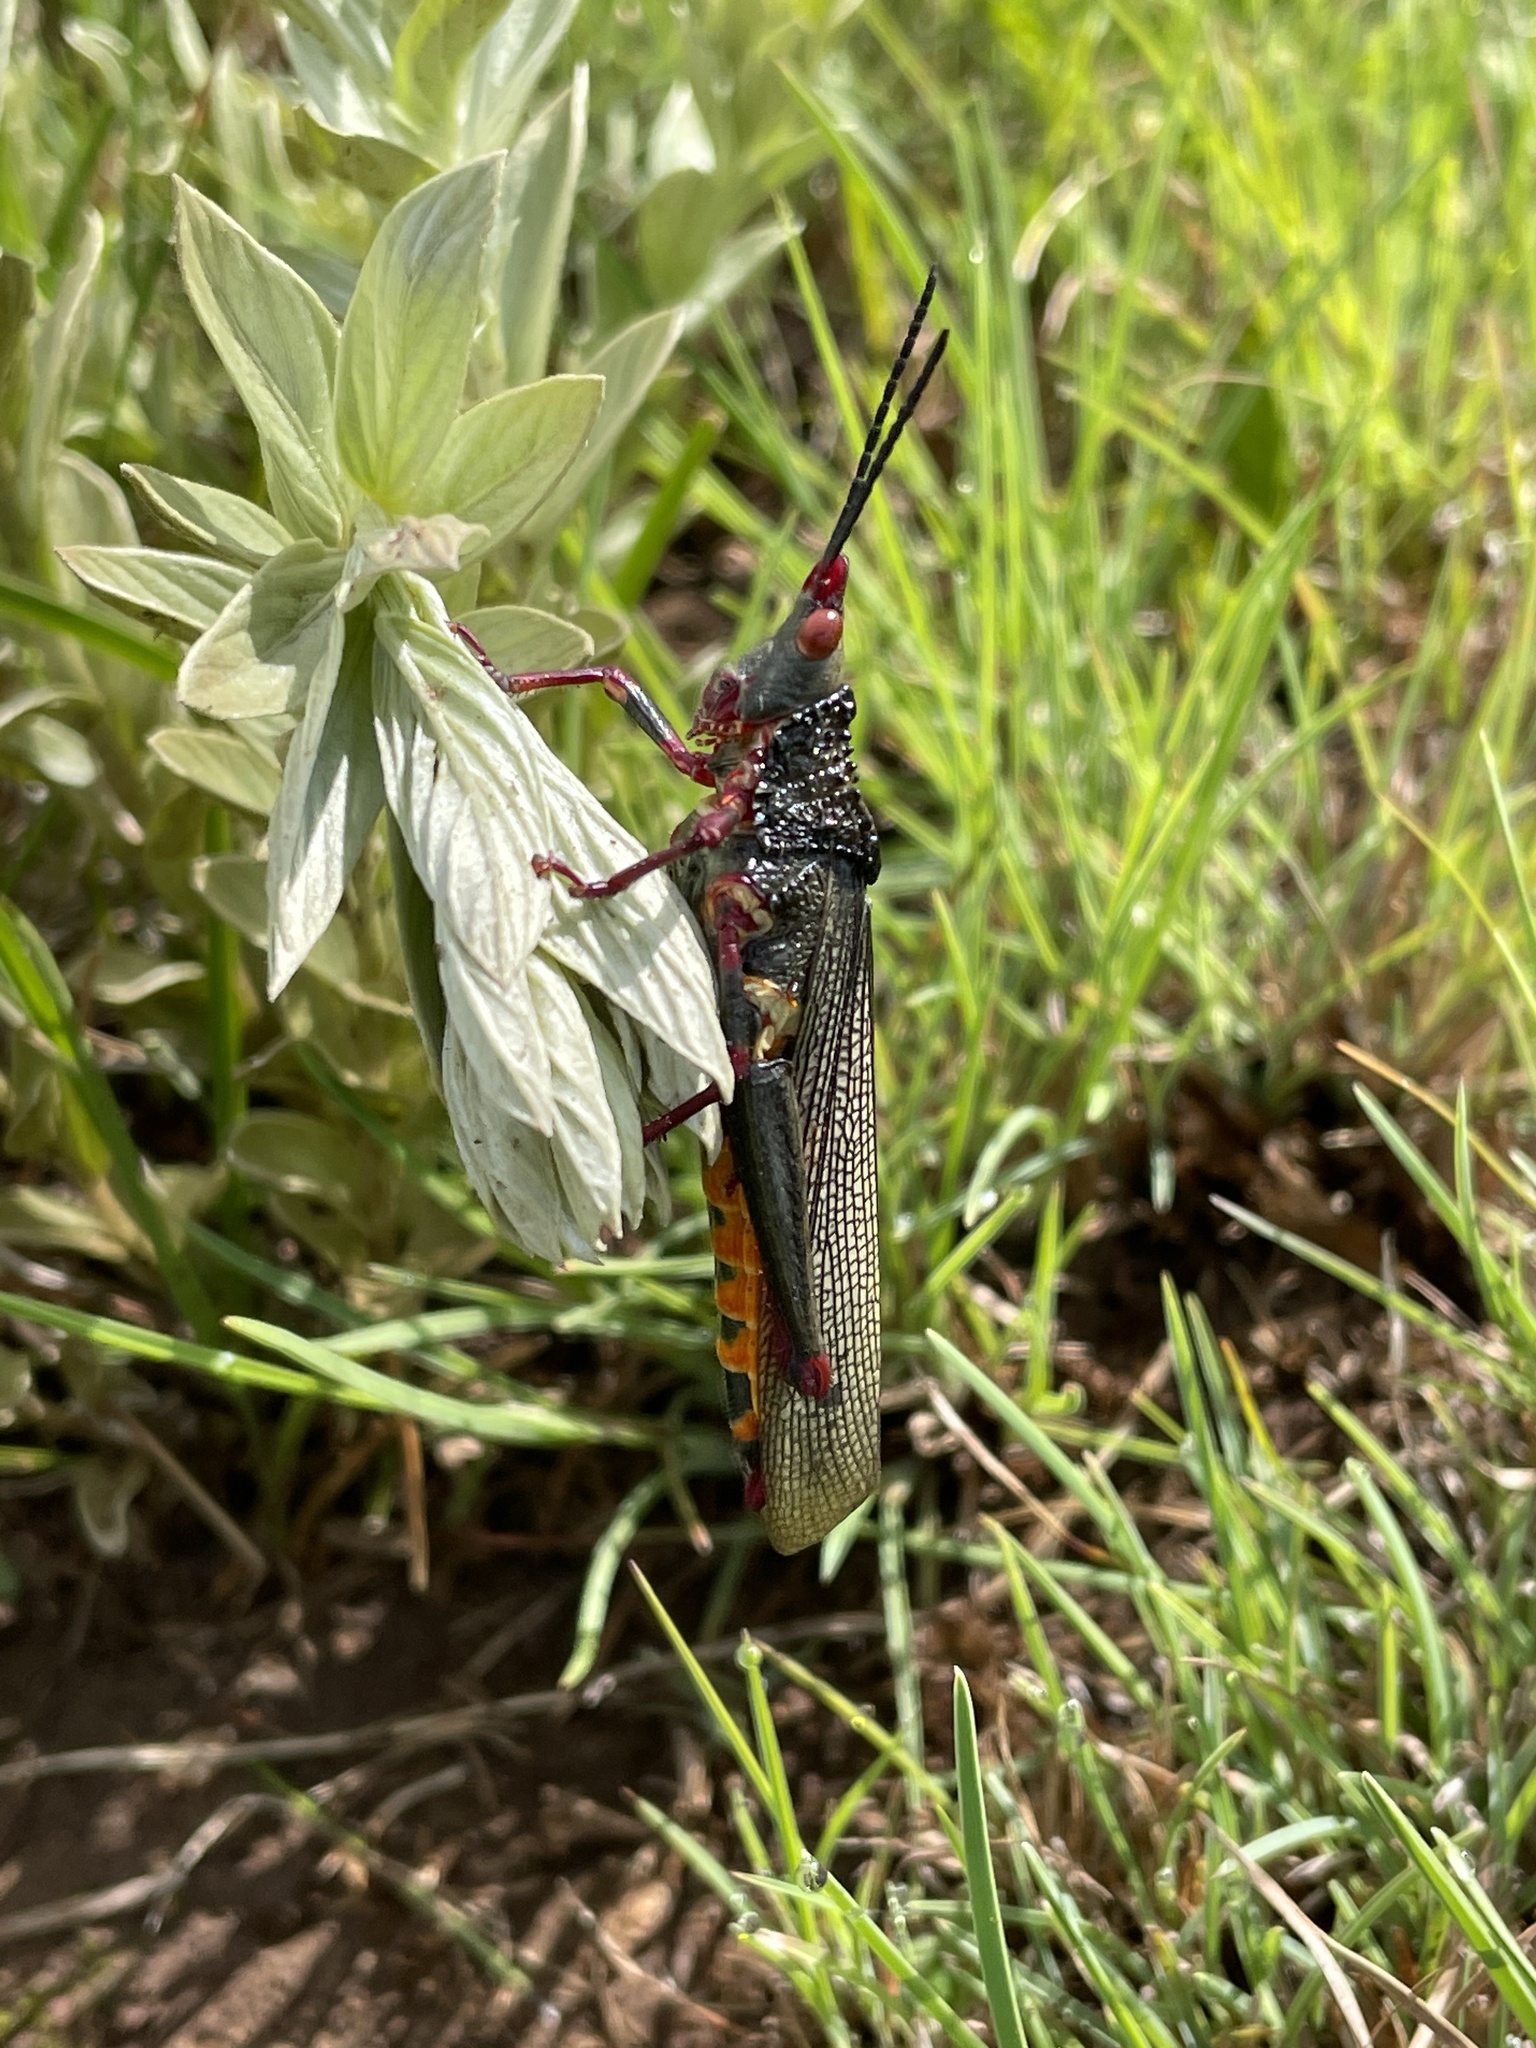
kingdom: Animalia
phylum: Arthropoda
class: Insecta
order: Orthoptera
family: Pyrgomorphidae
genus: Taphronota
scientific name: Taphronota stali
